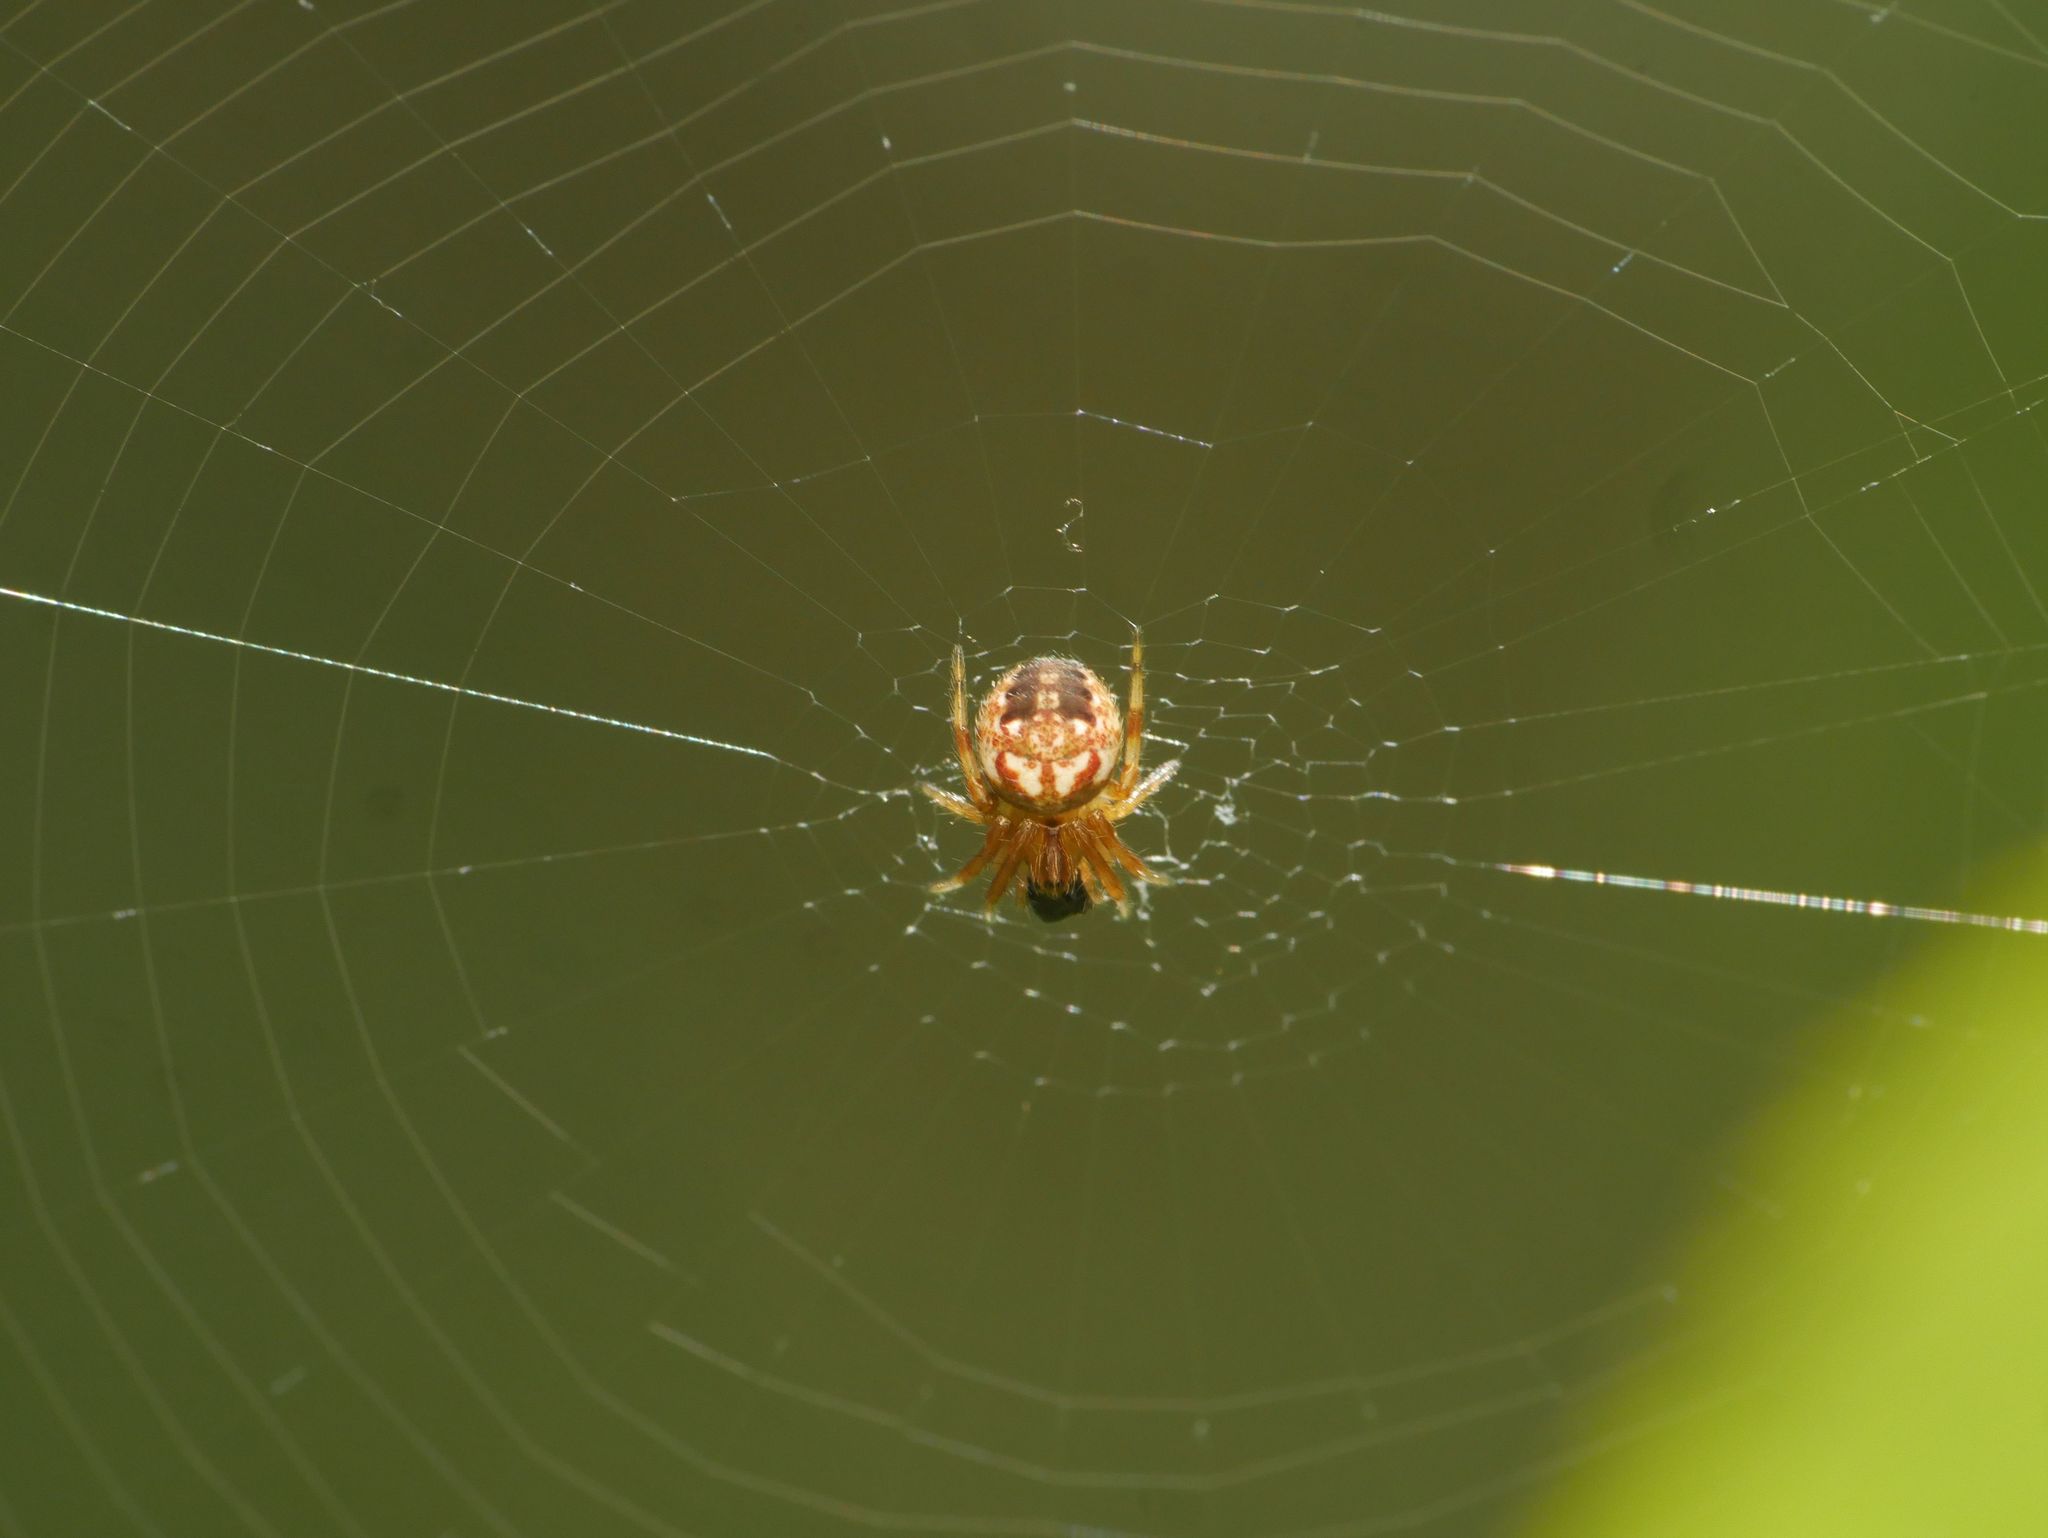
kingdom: Animalia
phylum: Arthropoda
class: Arachnida
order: Araneae
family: Araneidae
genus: Neoscona
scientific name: Neoscona arabesca
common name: Orb weavers
